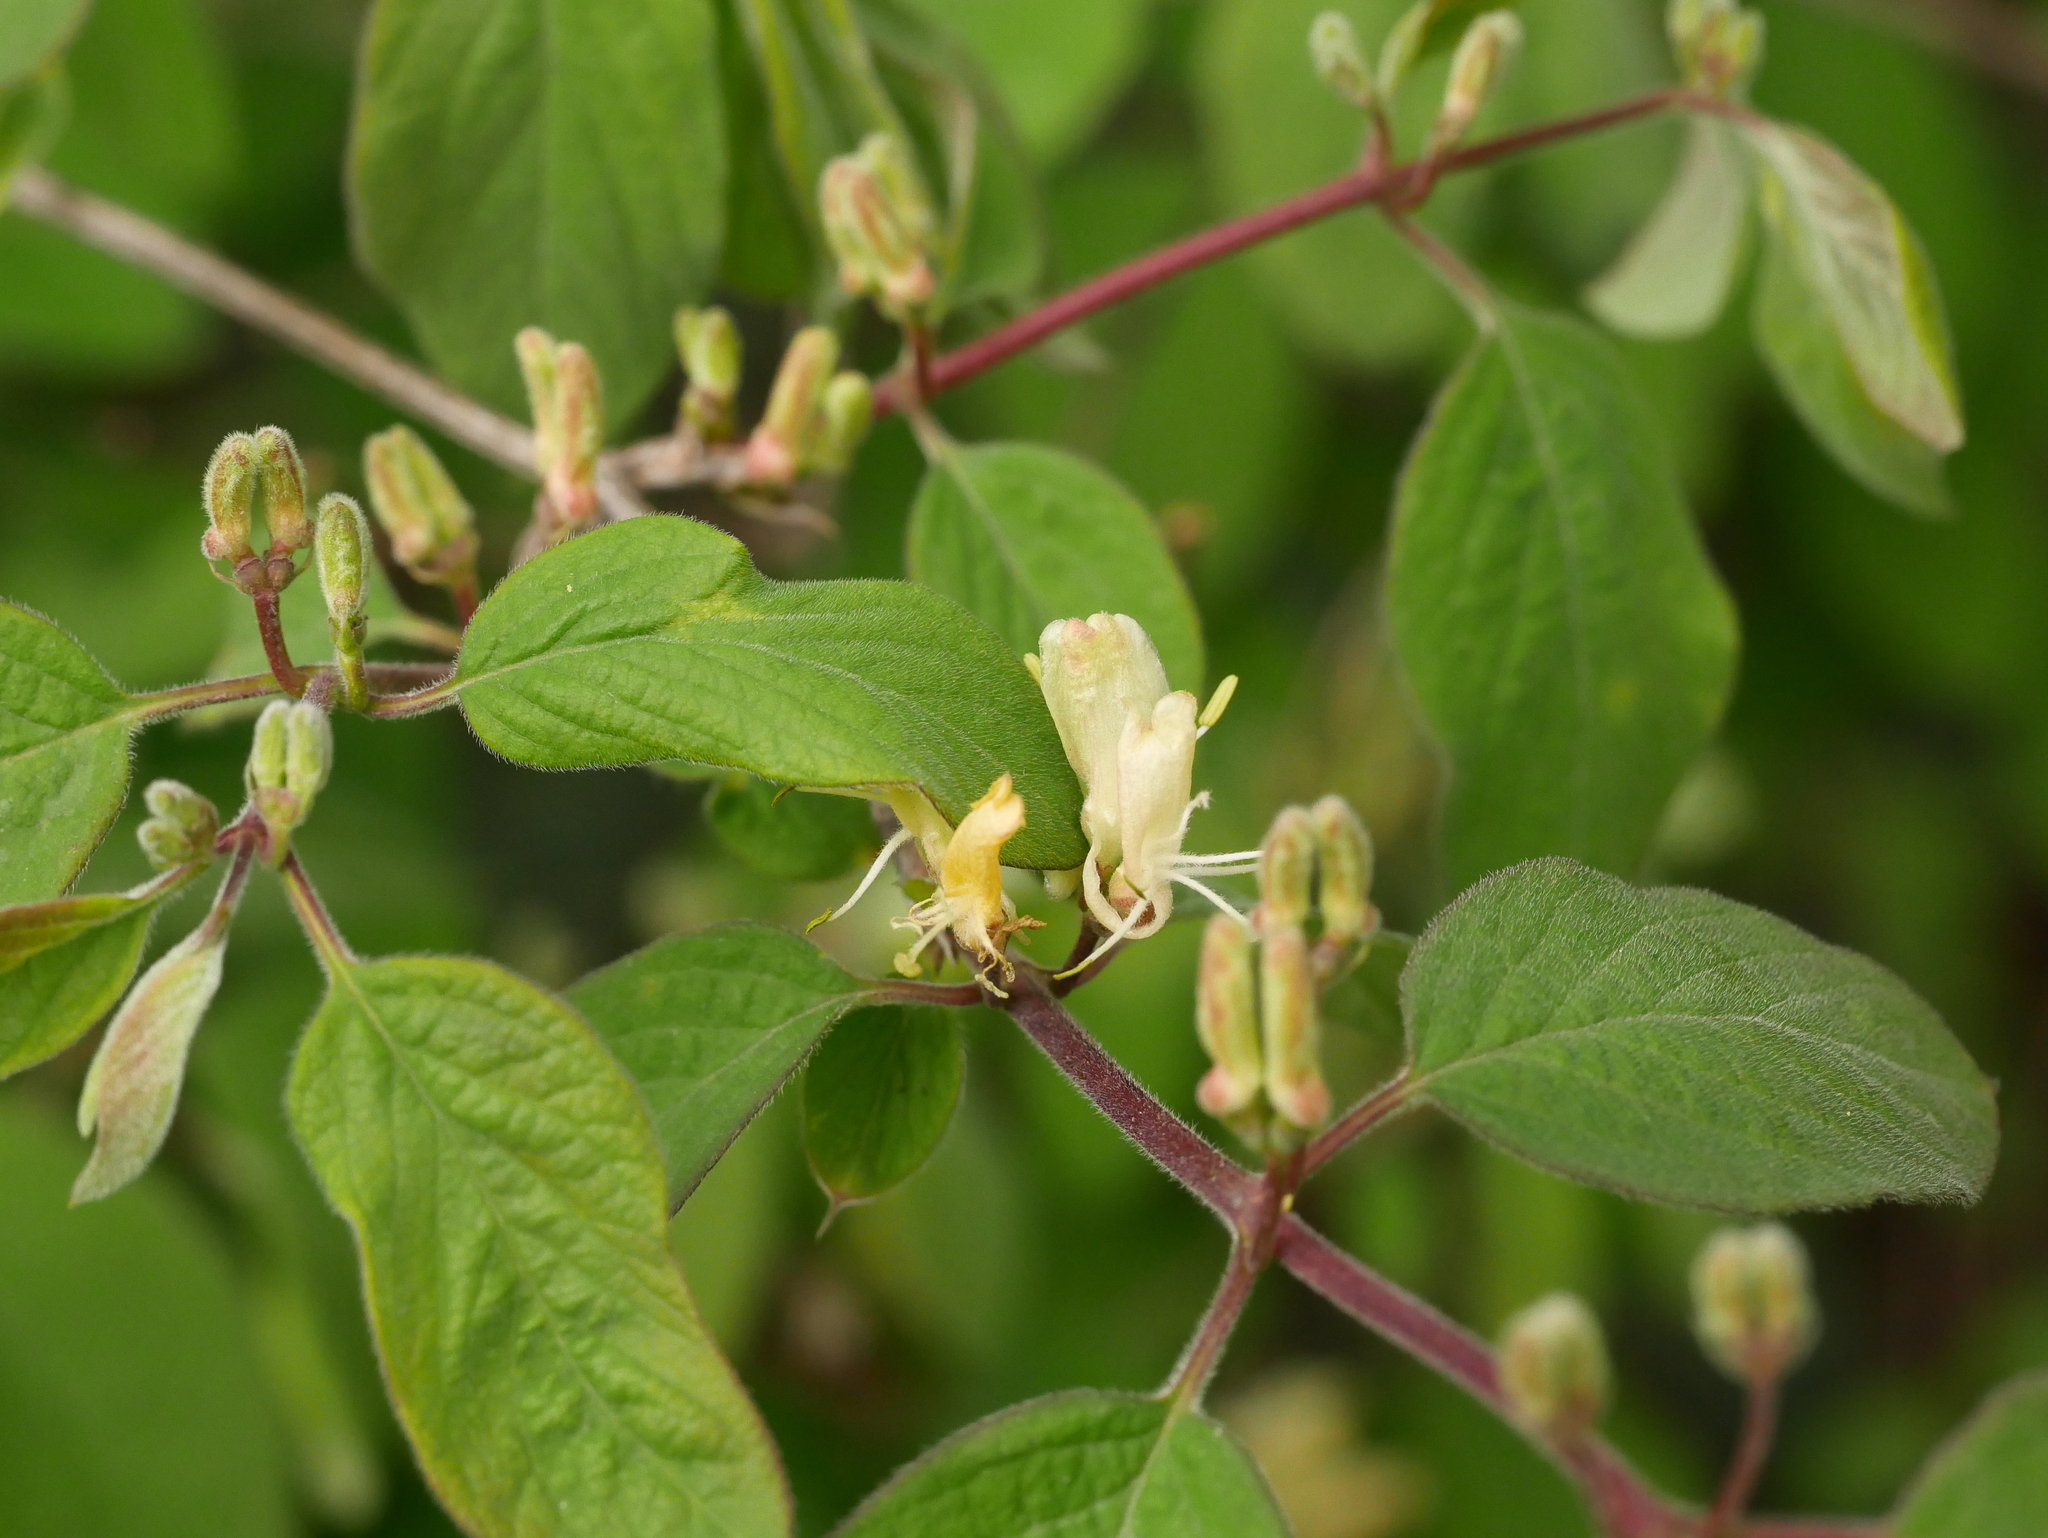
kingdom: Plantae
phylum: Tracheophyta
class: Magnoliopsida
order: Dipsacales
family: Caprifoliaceae
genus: Lonicera
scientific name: Lonicera xylosteum
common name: Fly honeysuckle
